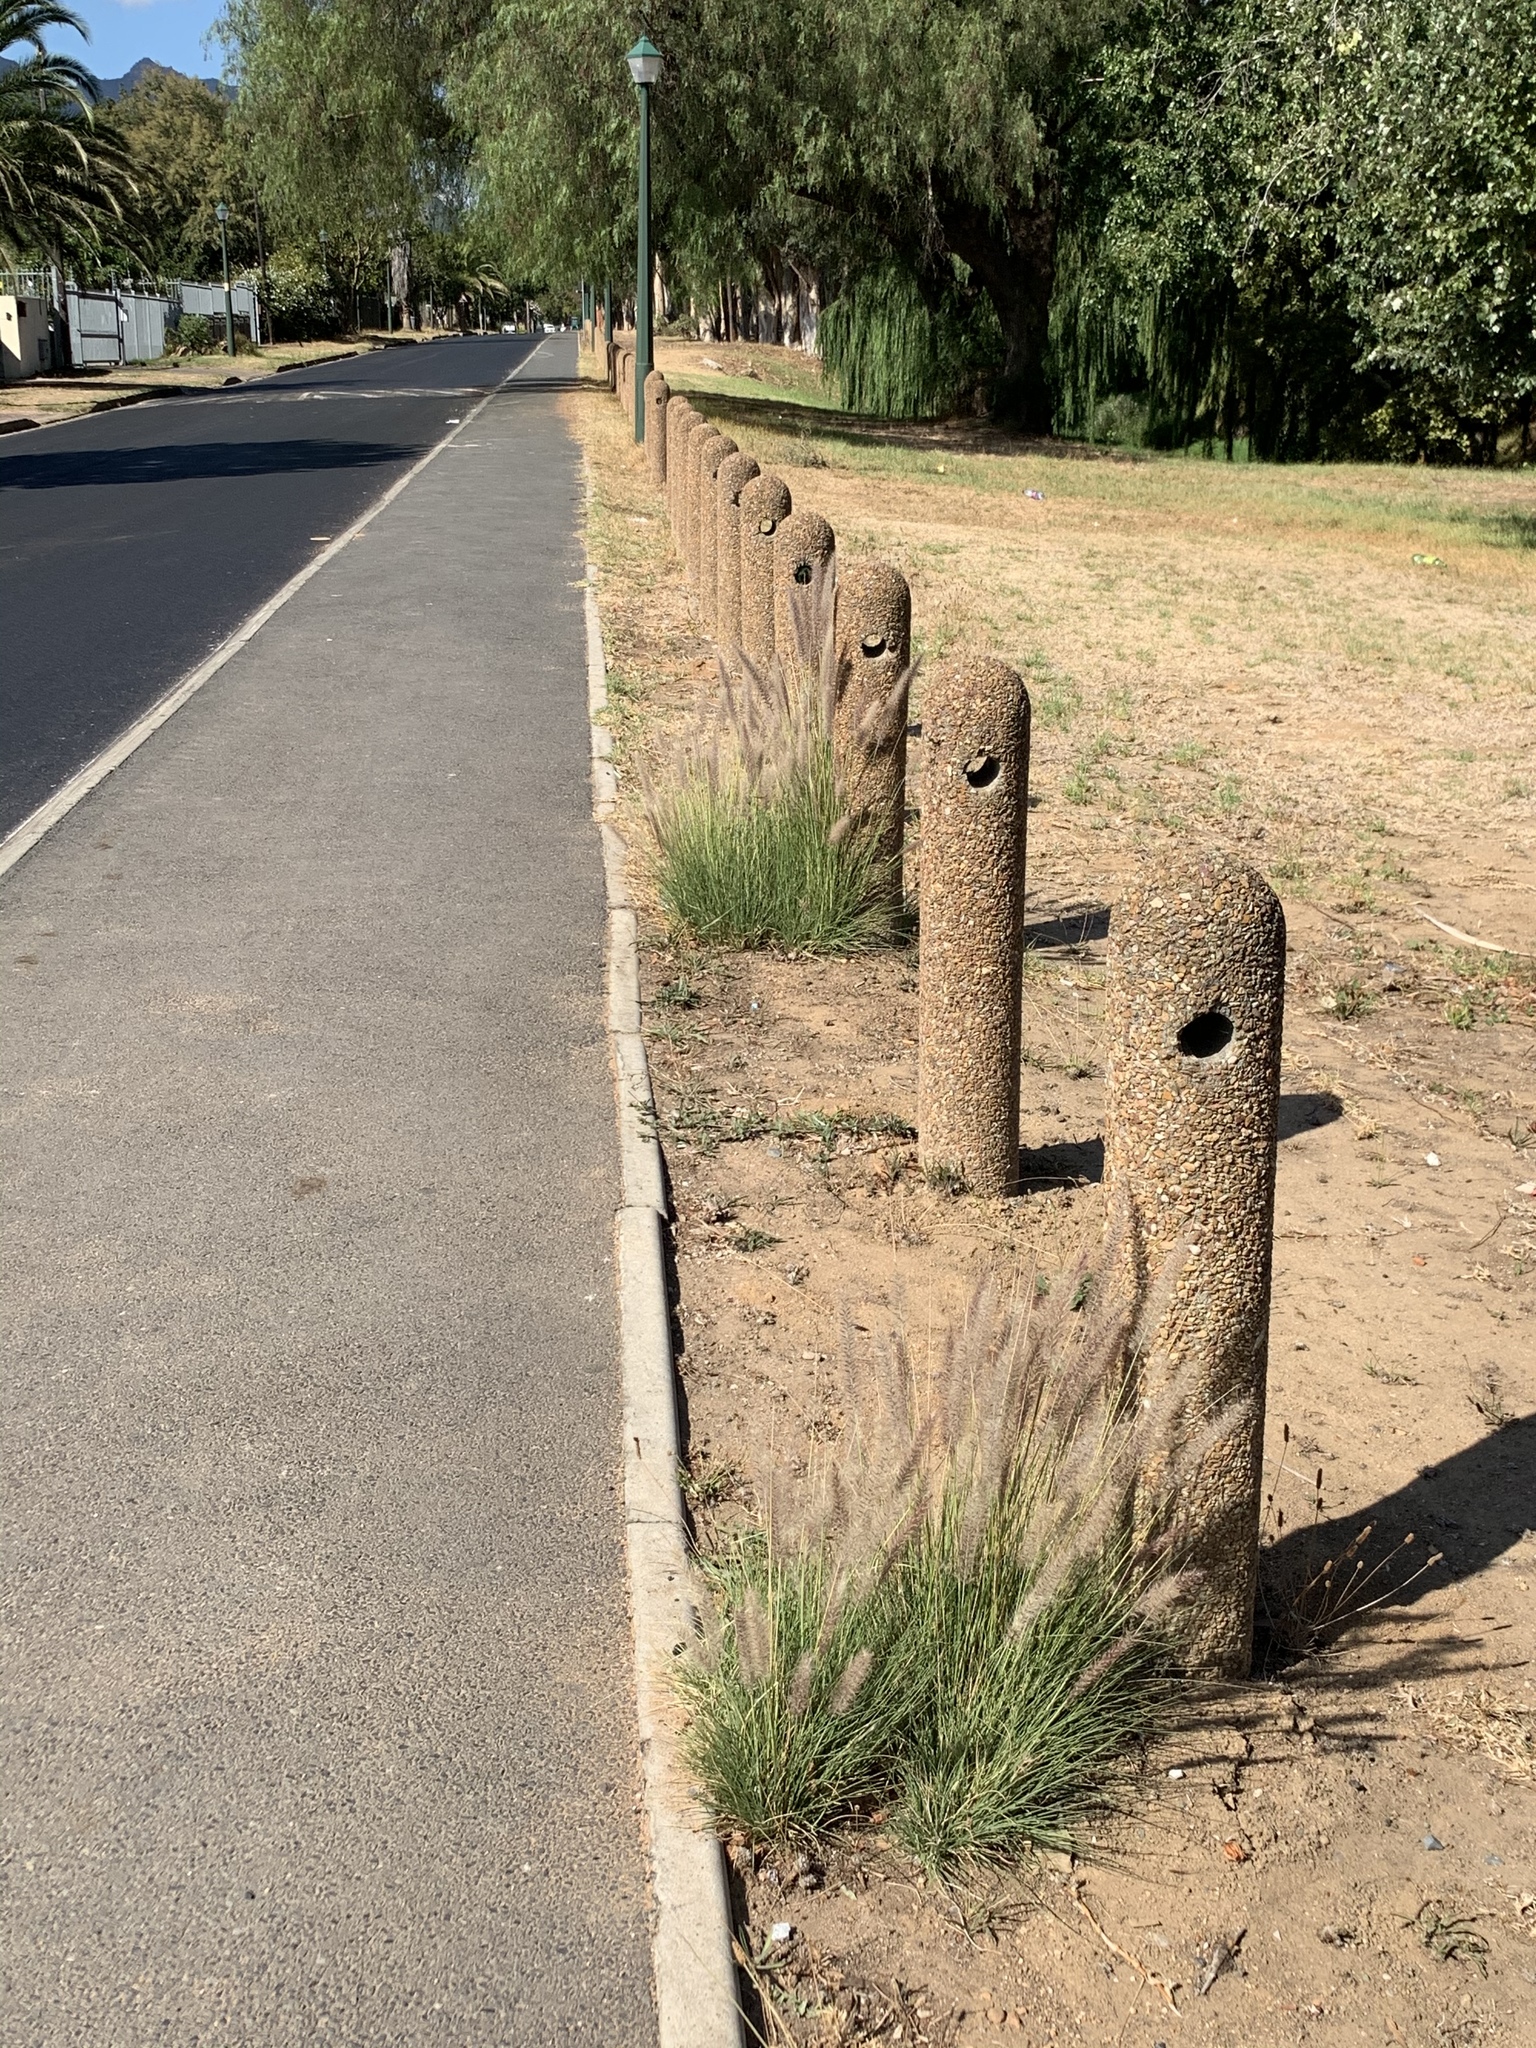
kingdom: Plantae
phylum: Tracheophyta
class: Liliopsida
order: Poales
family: Poaceae
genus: Cenchrus
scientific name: Cenchrus setaceus
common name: Crimson fountaingrass
